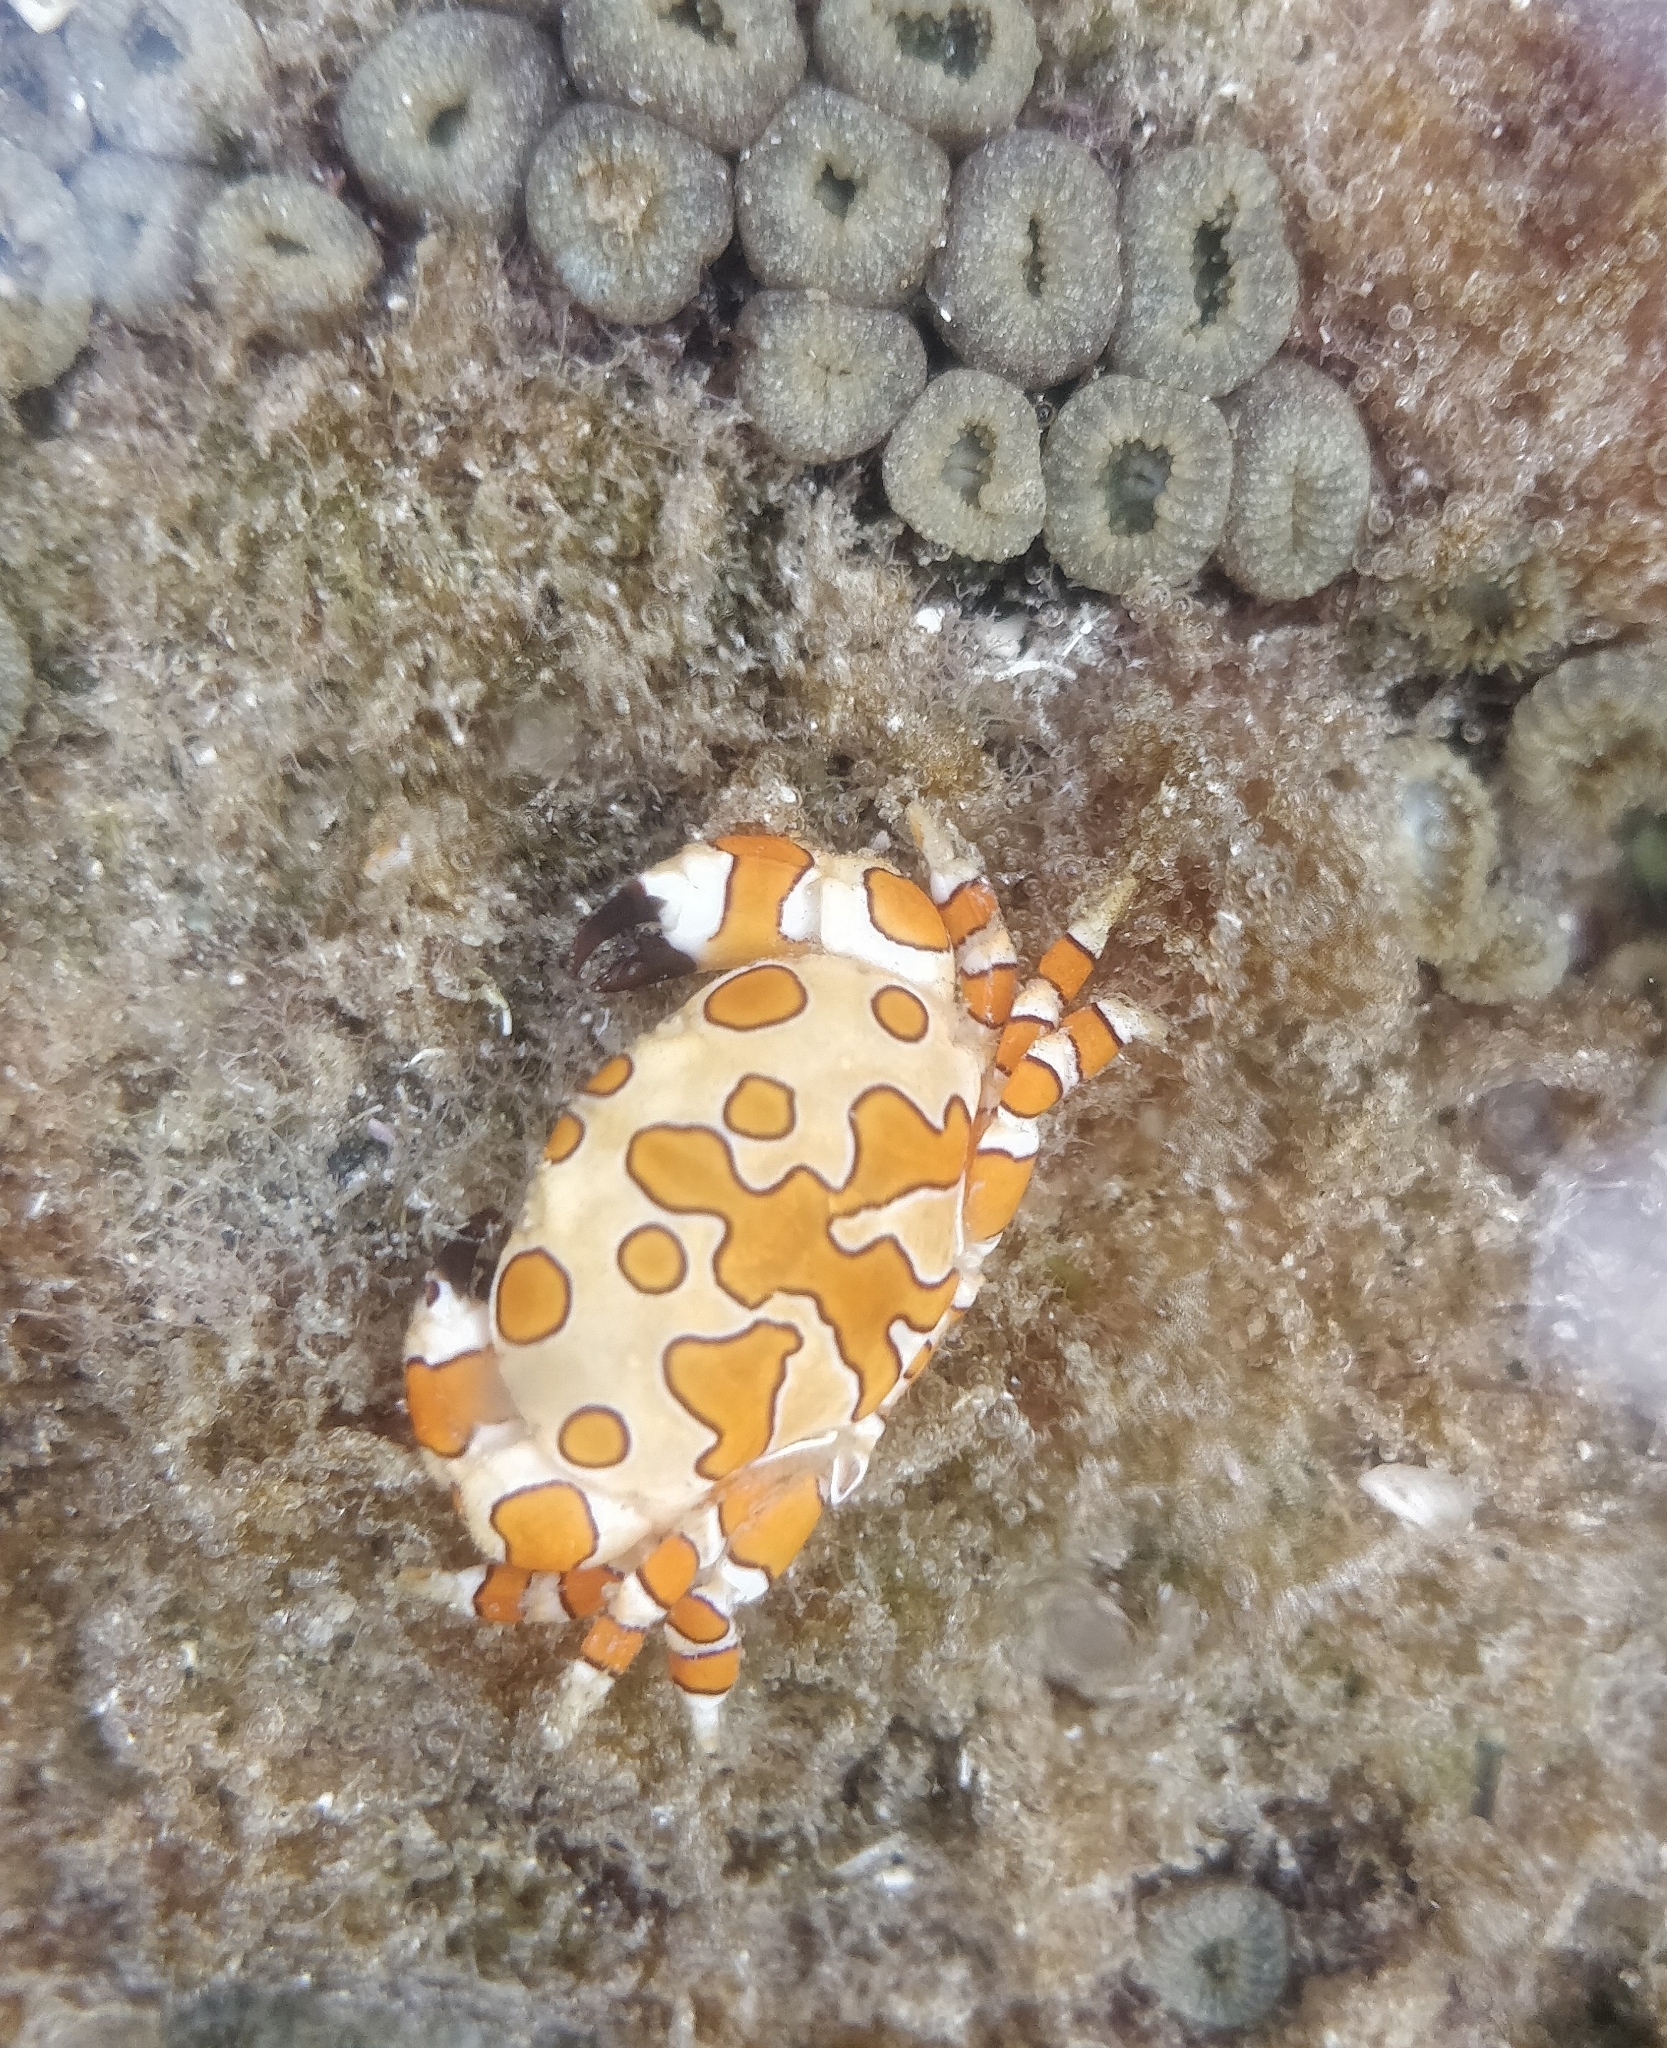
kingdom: Animalia
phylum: Arthropoda
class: Malacostraca
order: Decapoda
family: Xanthidae
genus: Platypodiella
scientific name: Platypodiella picta
